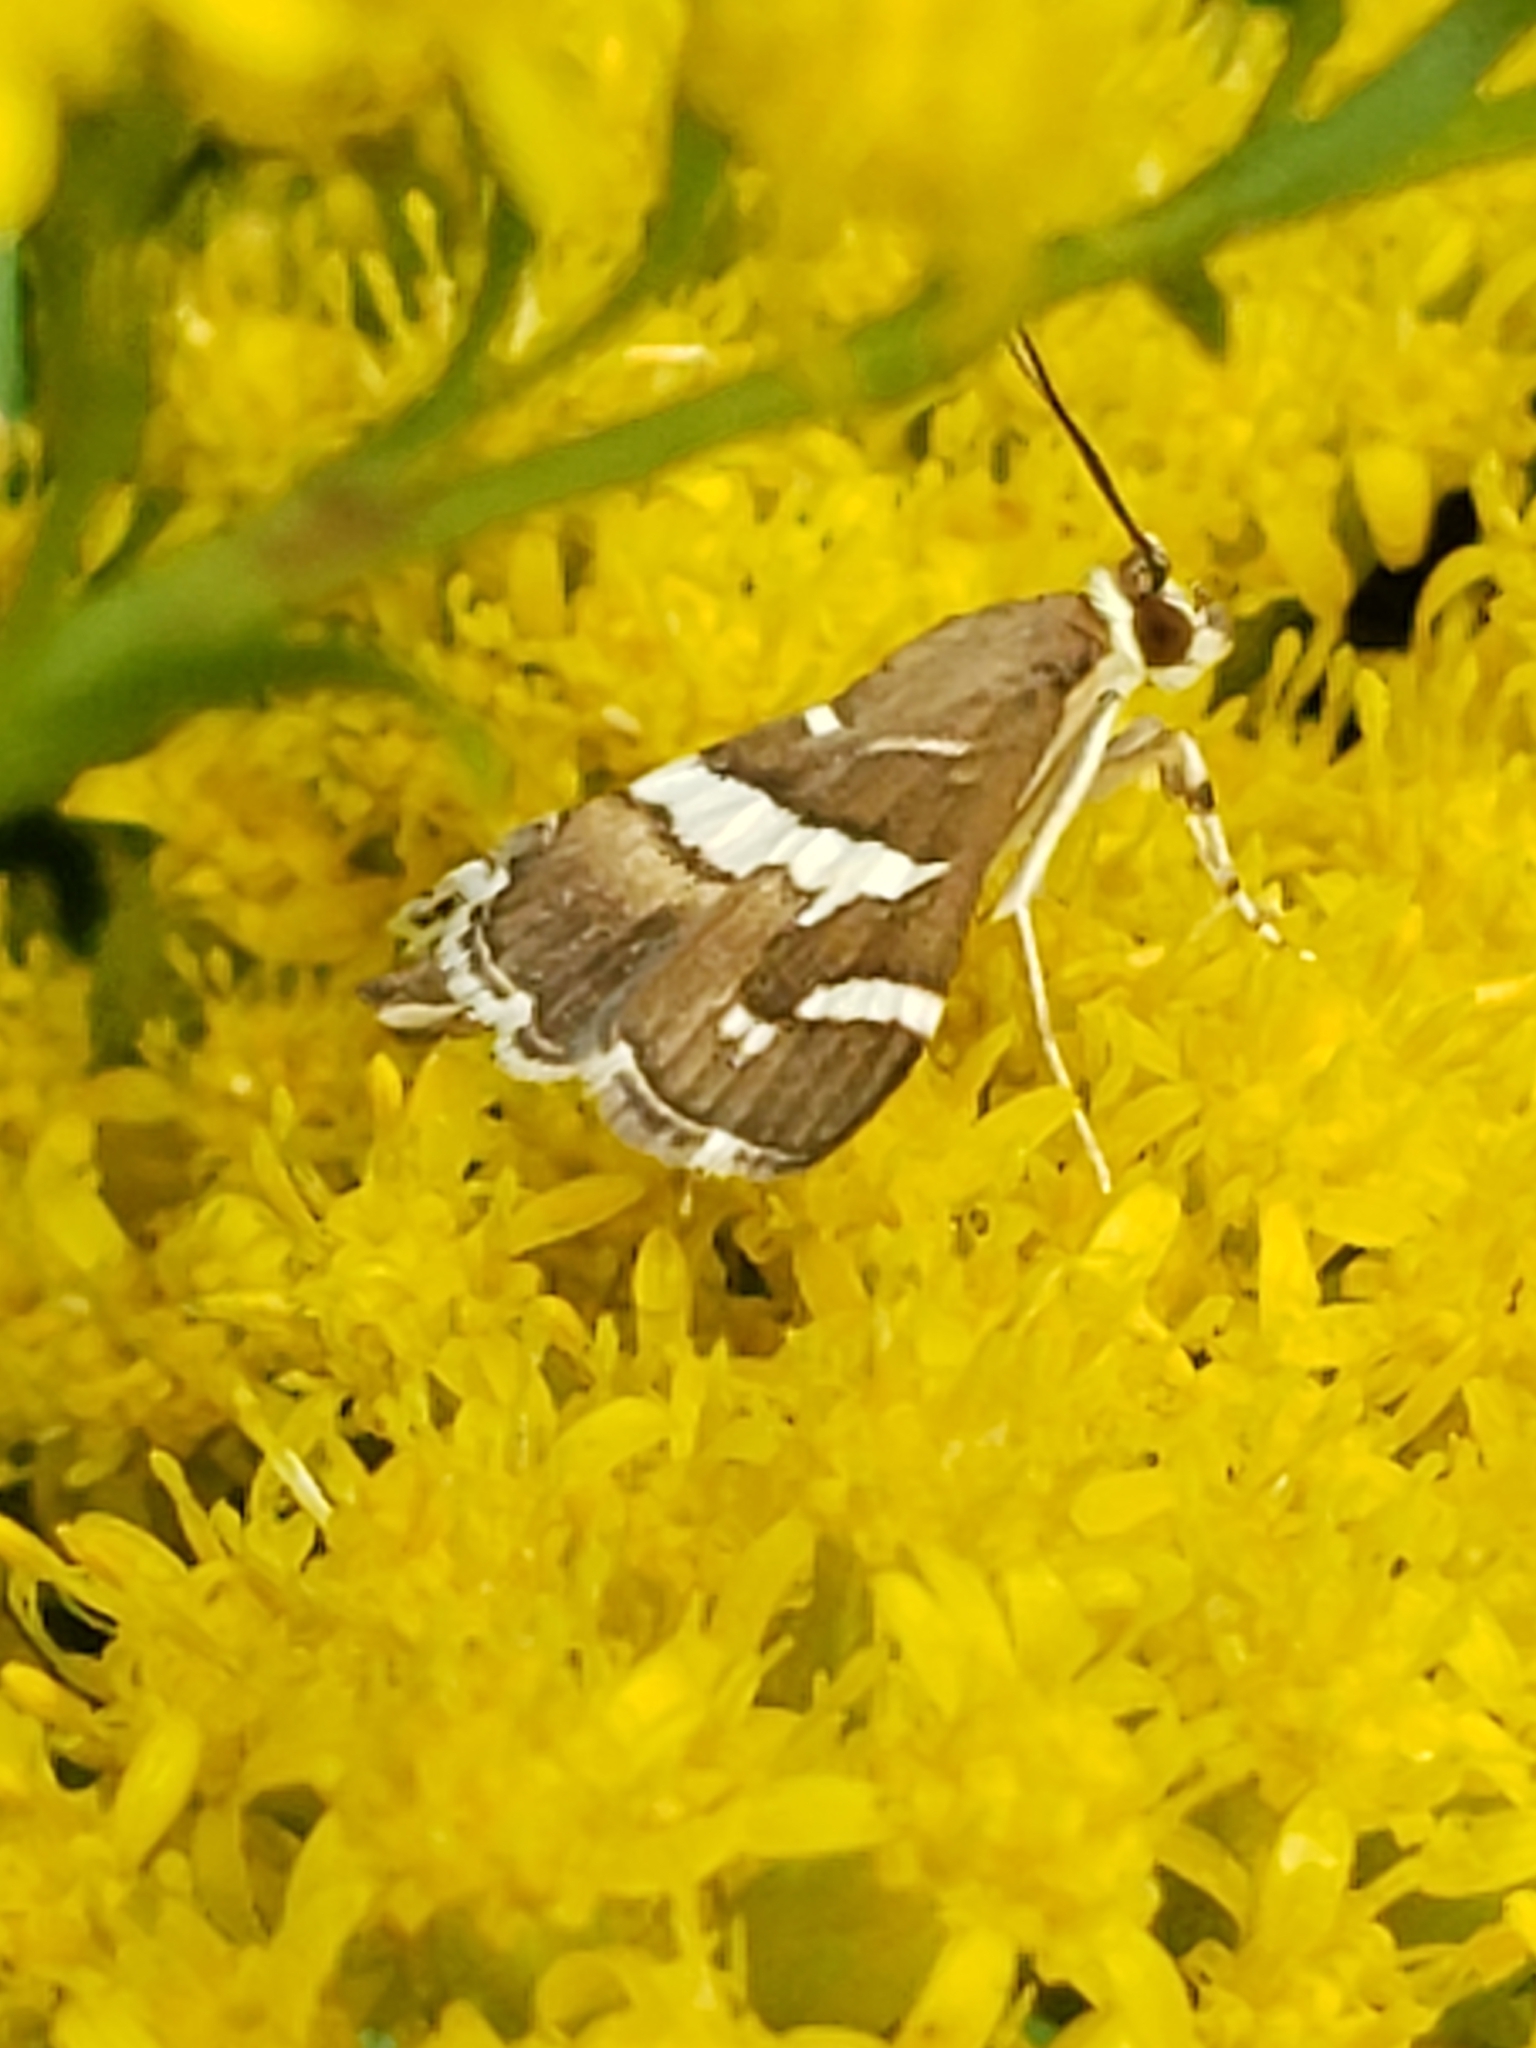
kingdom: Animalia
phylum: Arthropoda
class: Insecta
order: Lepidoptera
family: Crambidae
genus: Spoladea
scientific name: Spoladea recurvalis
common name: Beet webworm moth
